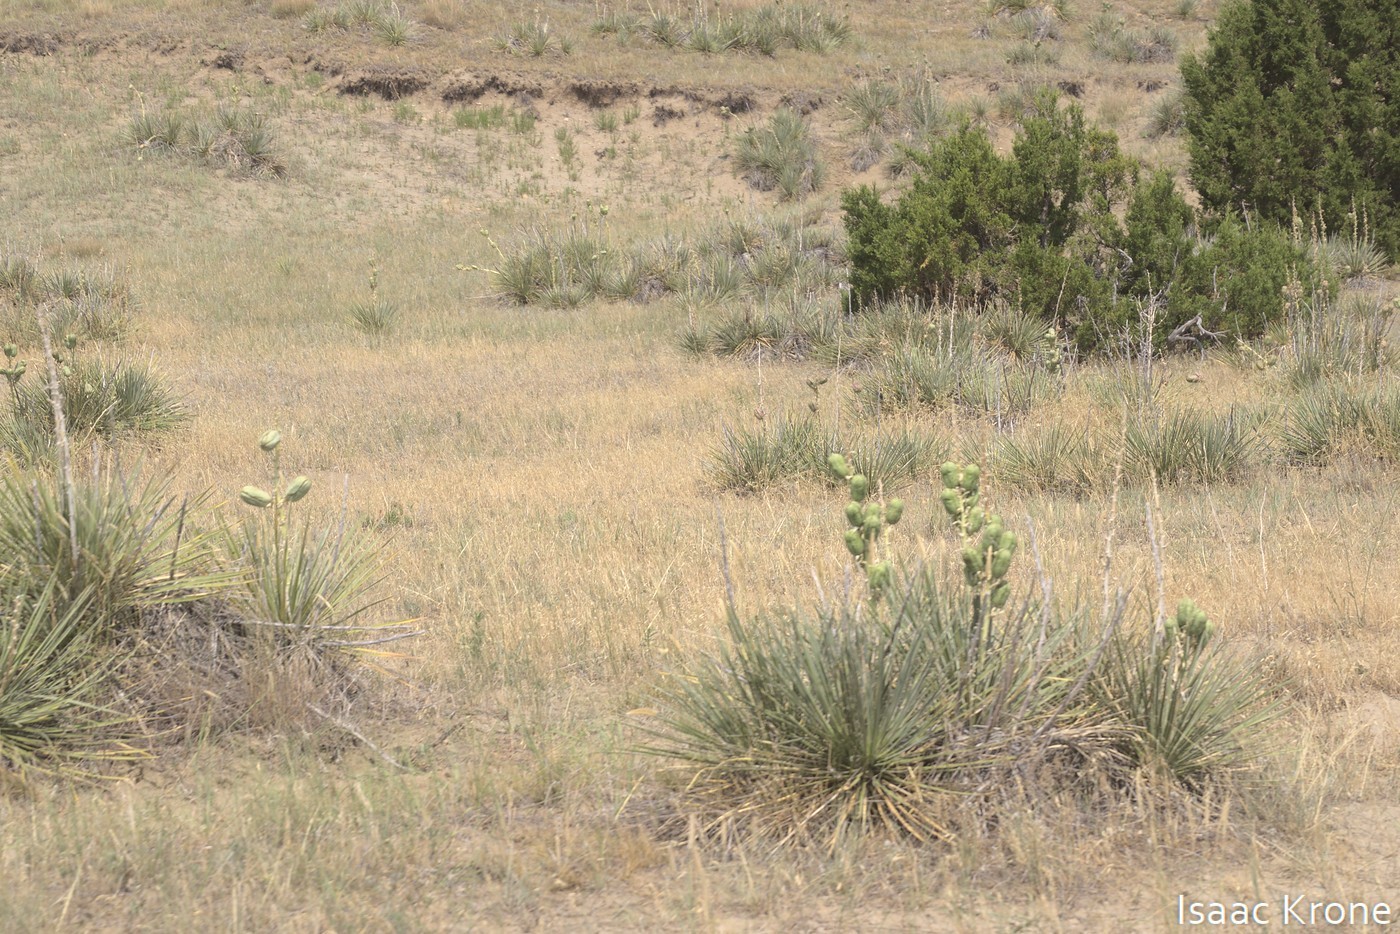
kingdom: Plantae
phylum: Tracheophyta
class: Liliopsida
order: Asparagales
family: Asparagaceae
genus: Yucca
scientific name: Yucca glauca
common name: Great plains yucca
